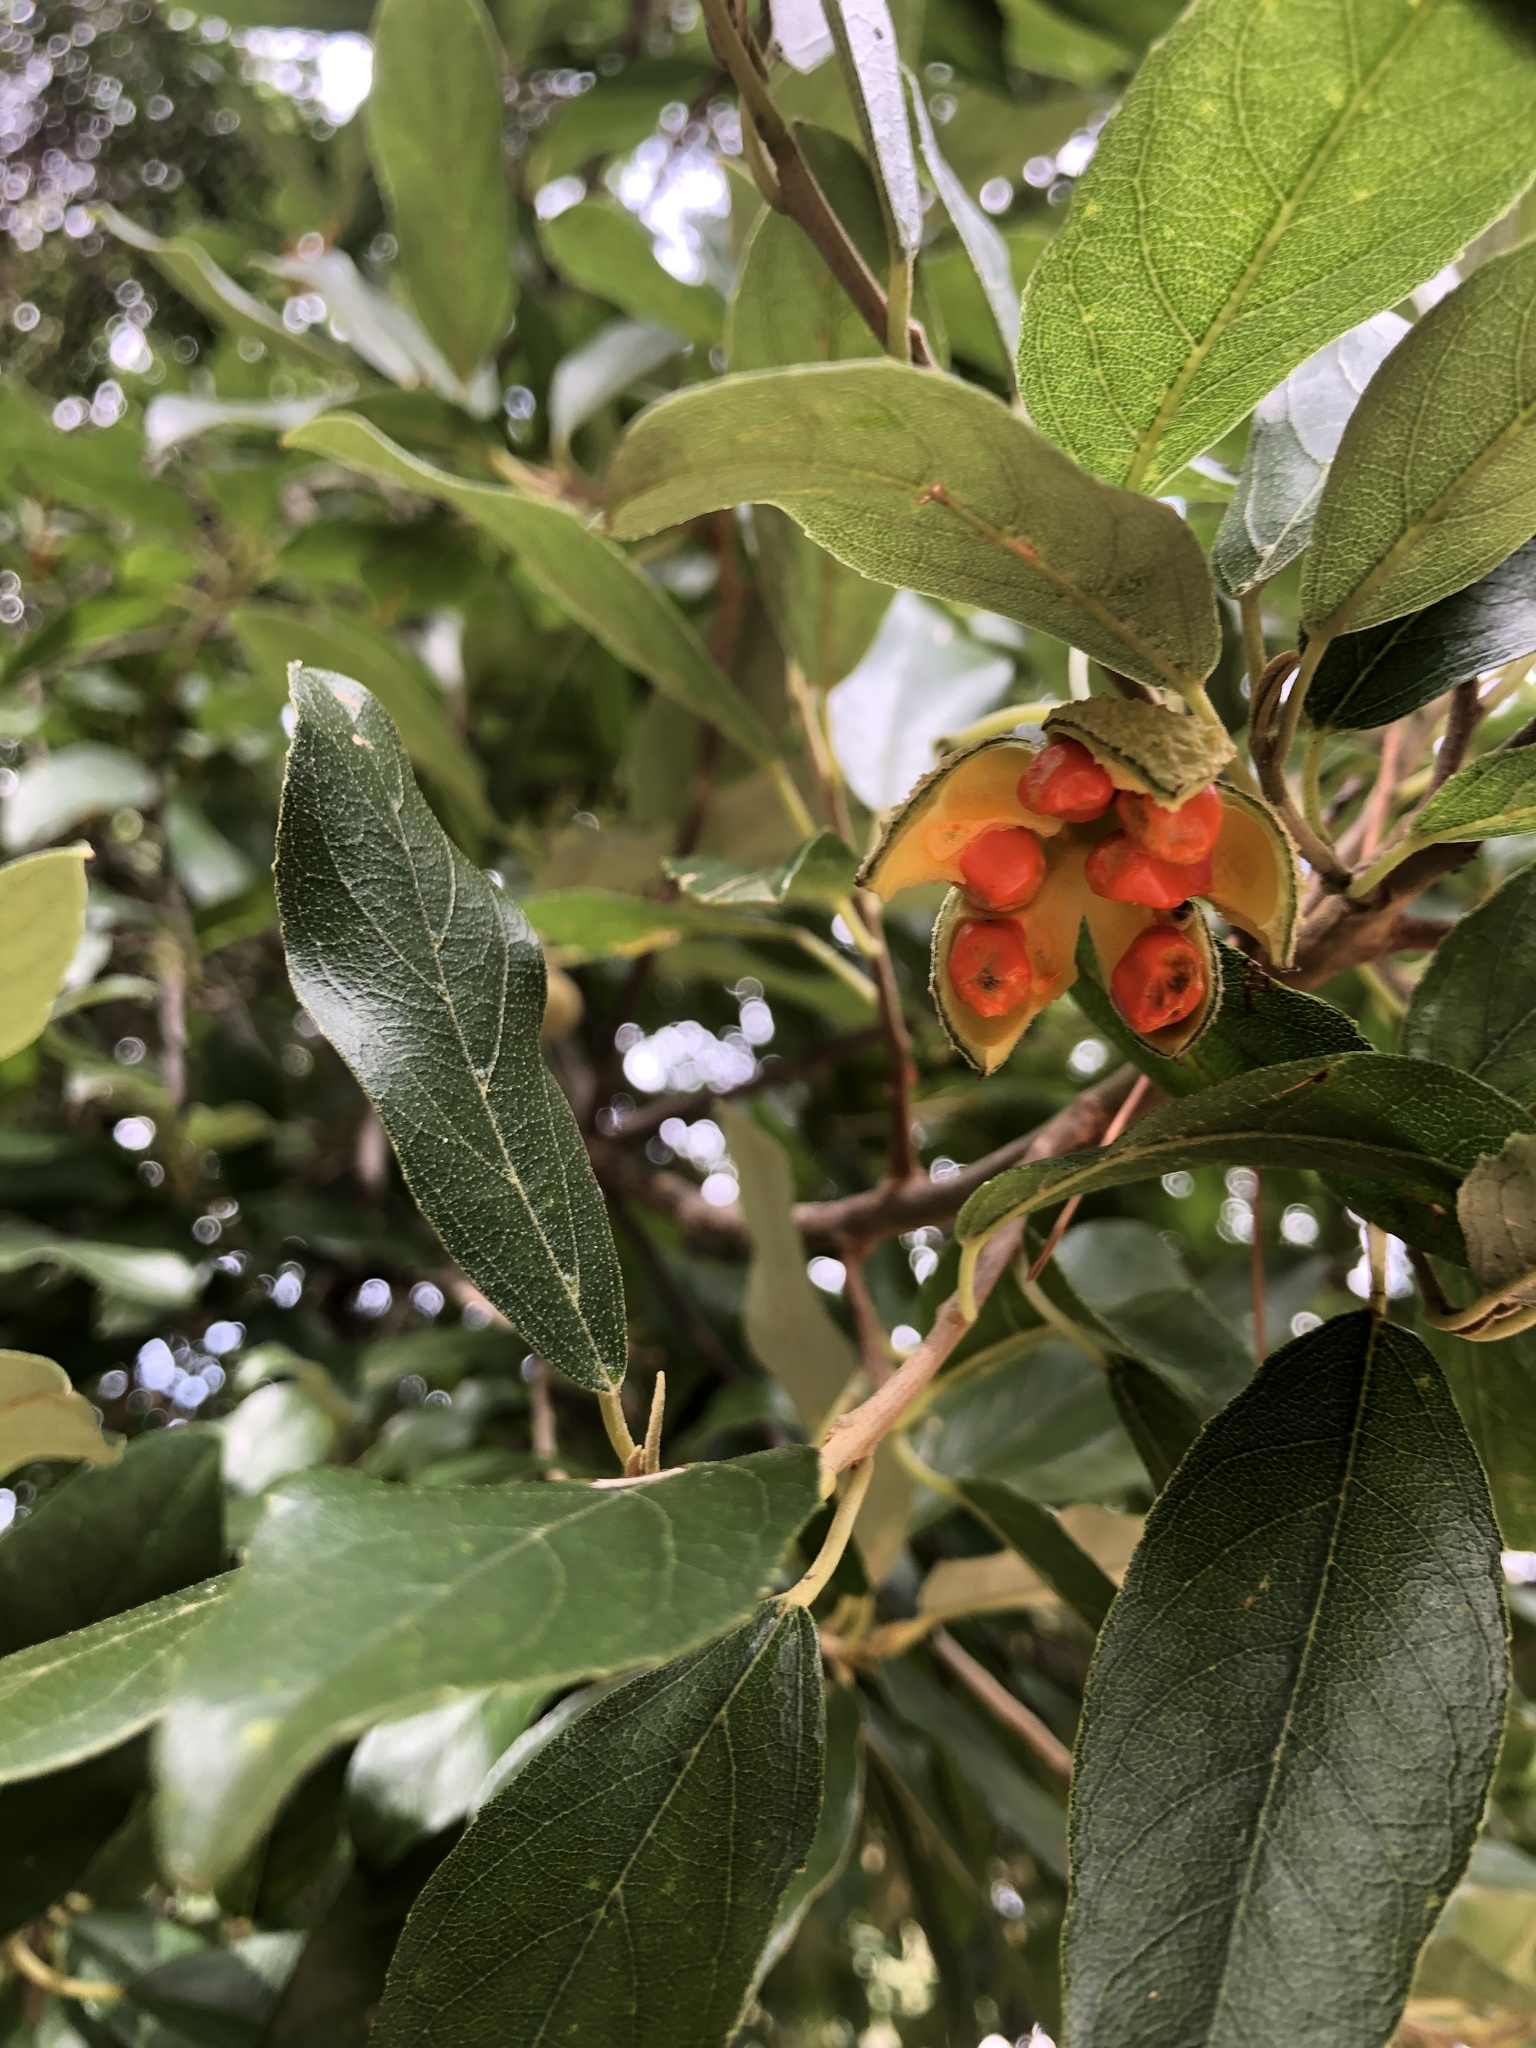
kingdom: Plantae
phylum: Tracheophyta
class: Magnoliopsida
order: Malpighiales
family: Achariaceae
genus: Kiggelaria
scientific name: Kiggelaria africana
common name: Wild peach
